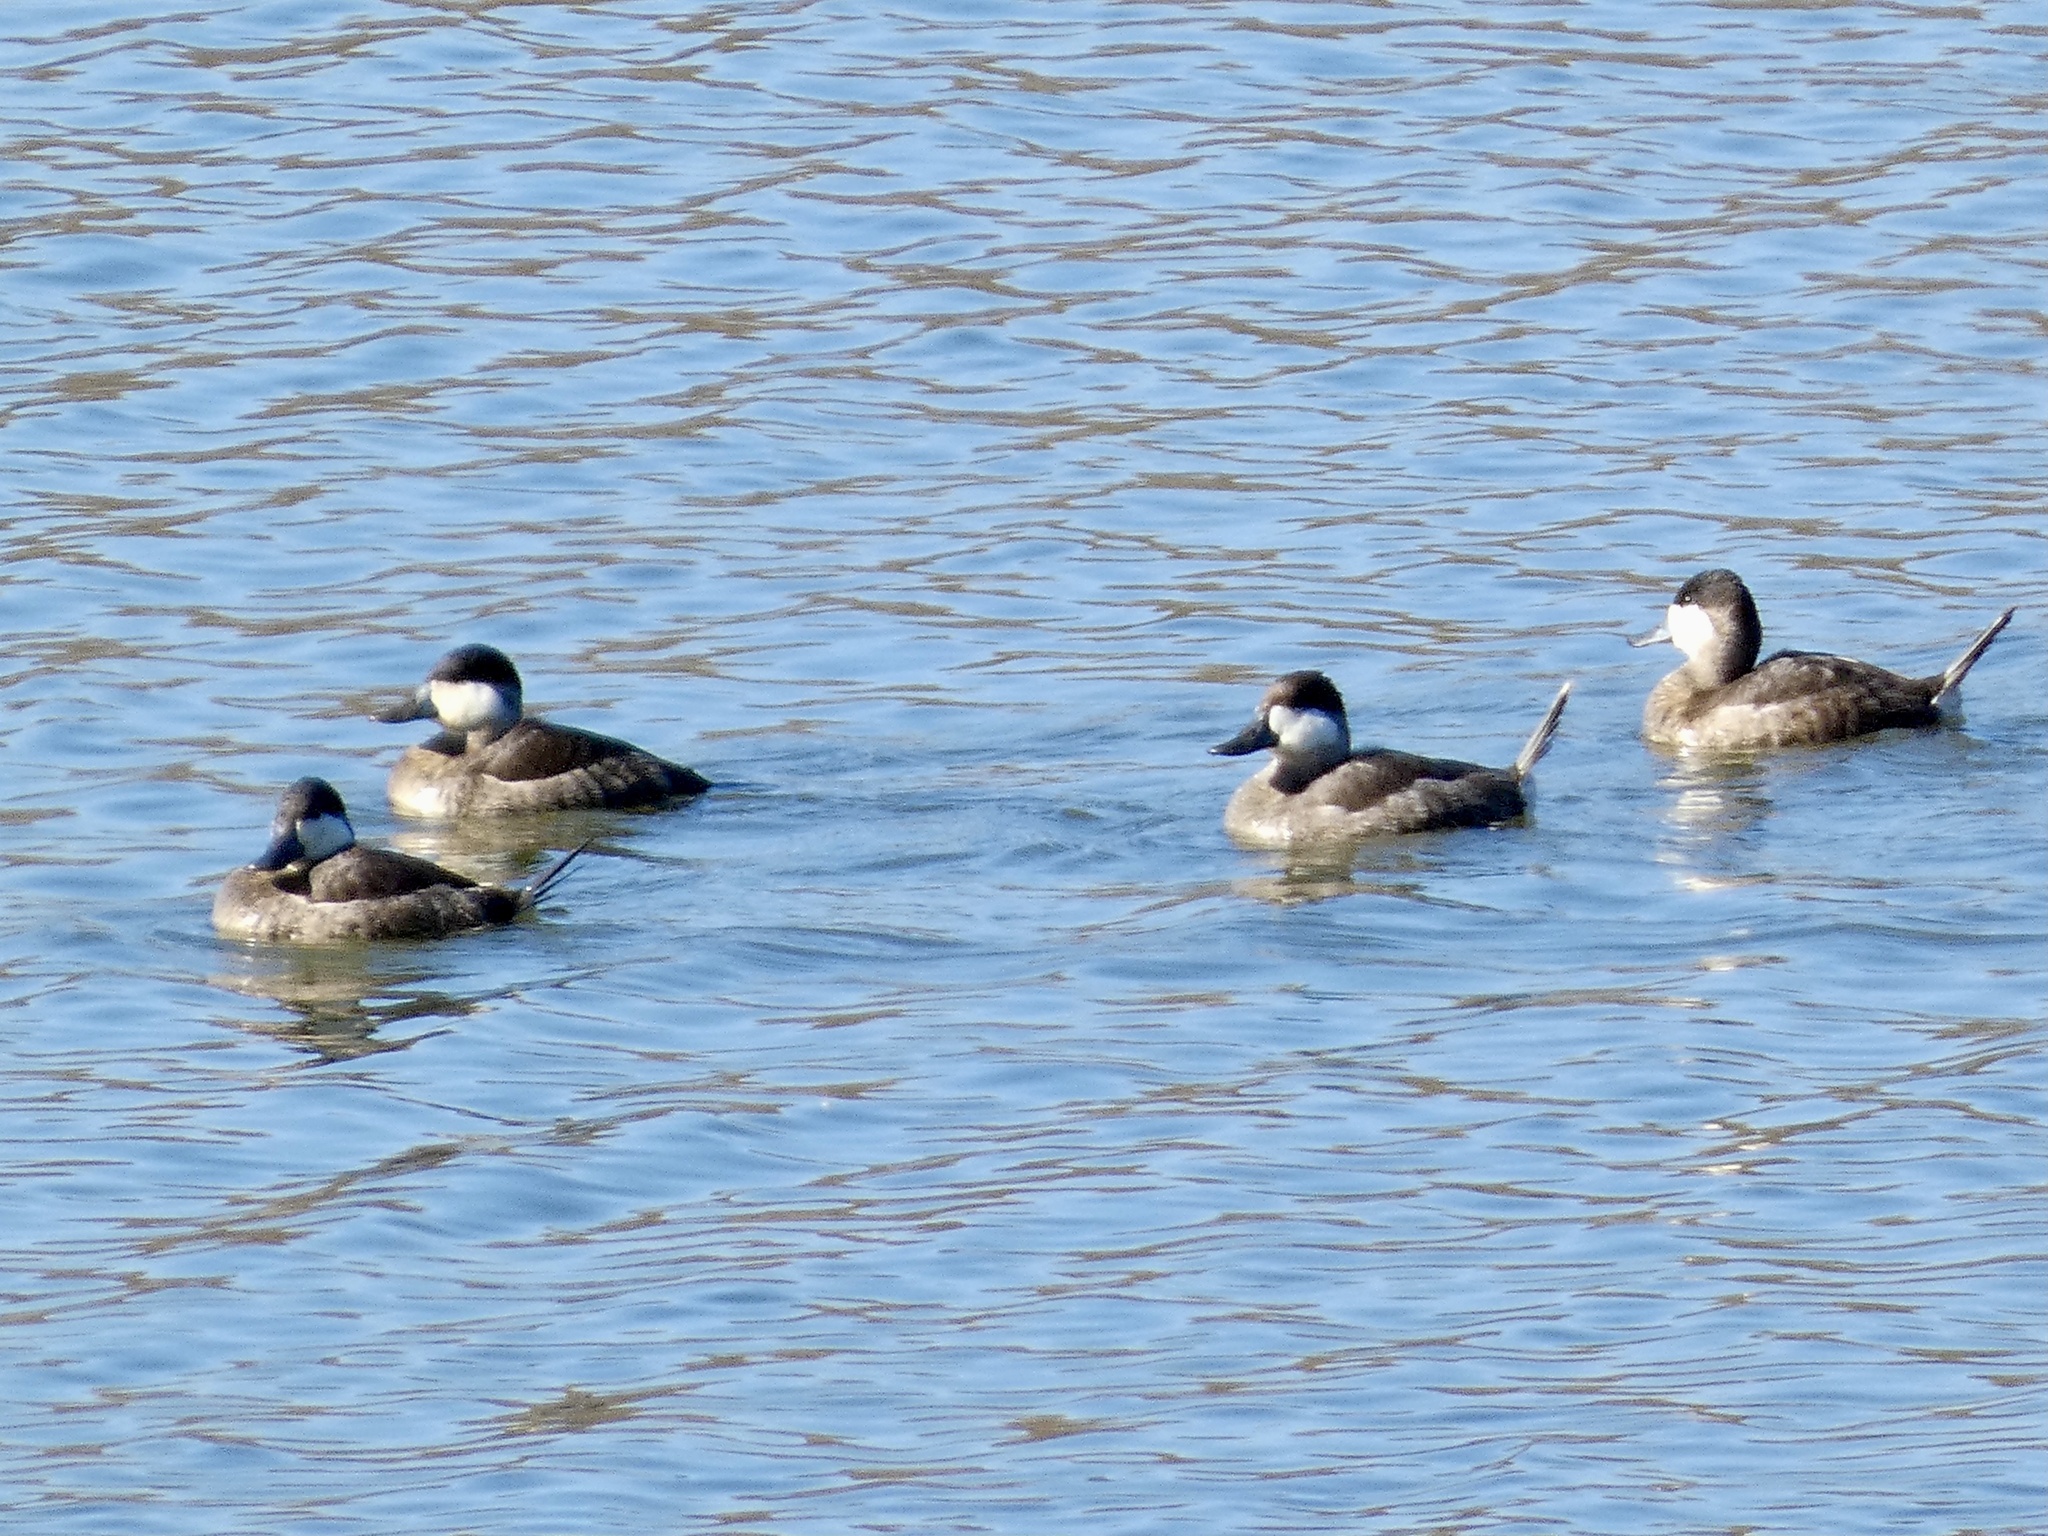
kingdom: Animalia
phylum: Chordata
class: Aves
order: Anseriformes
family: Anatidae
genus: Oxyura
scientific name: Oxyura jamaicensis
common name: Ruddy duck
